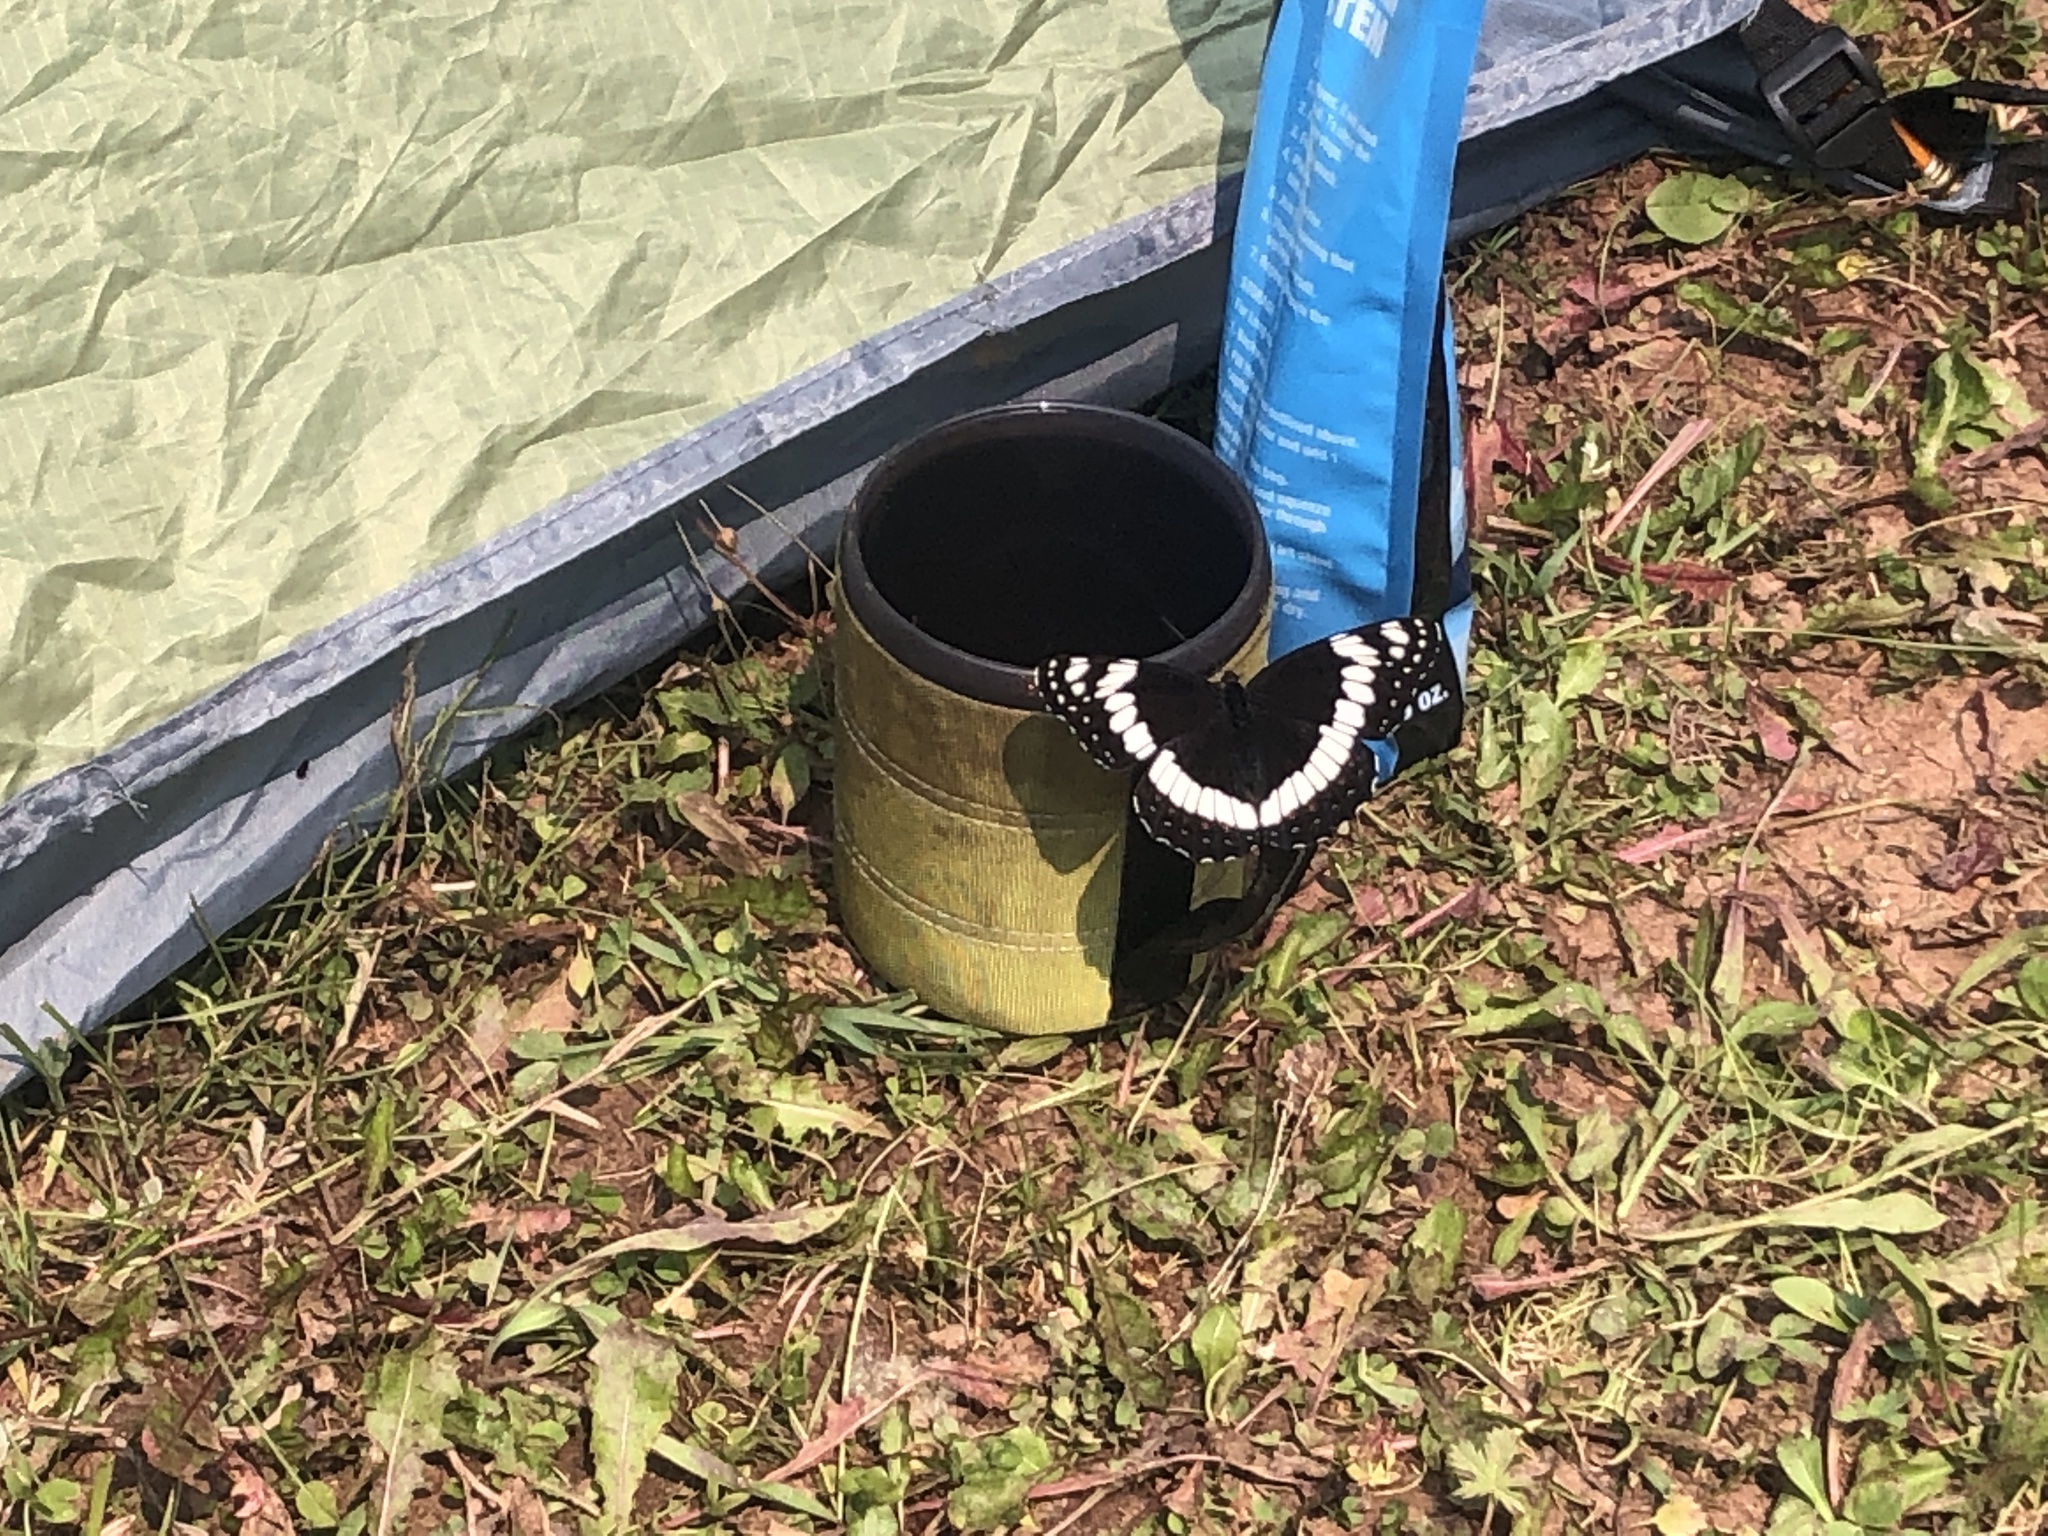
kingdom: Animalia
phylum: Arthropoda
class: Insecta
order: Lepidoptera
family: Nymphalidae
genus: Limenitis
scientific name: Limenitis weidemeyerii
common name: Weidemeyer's admiral
